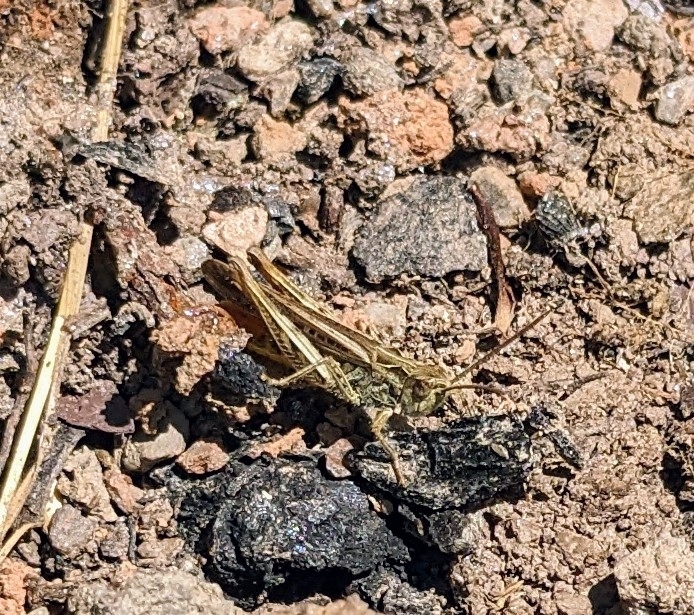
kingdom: Animalia
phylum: Arthropoda
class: Insecta
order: Orthoptera
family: Acrididae
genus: Chorthippus
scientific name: Chorthippus brunneus
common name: Field grasshopper
